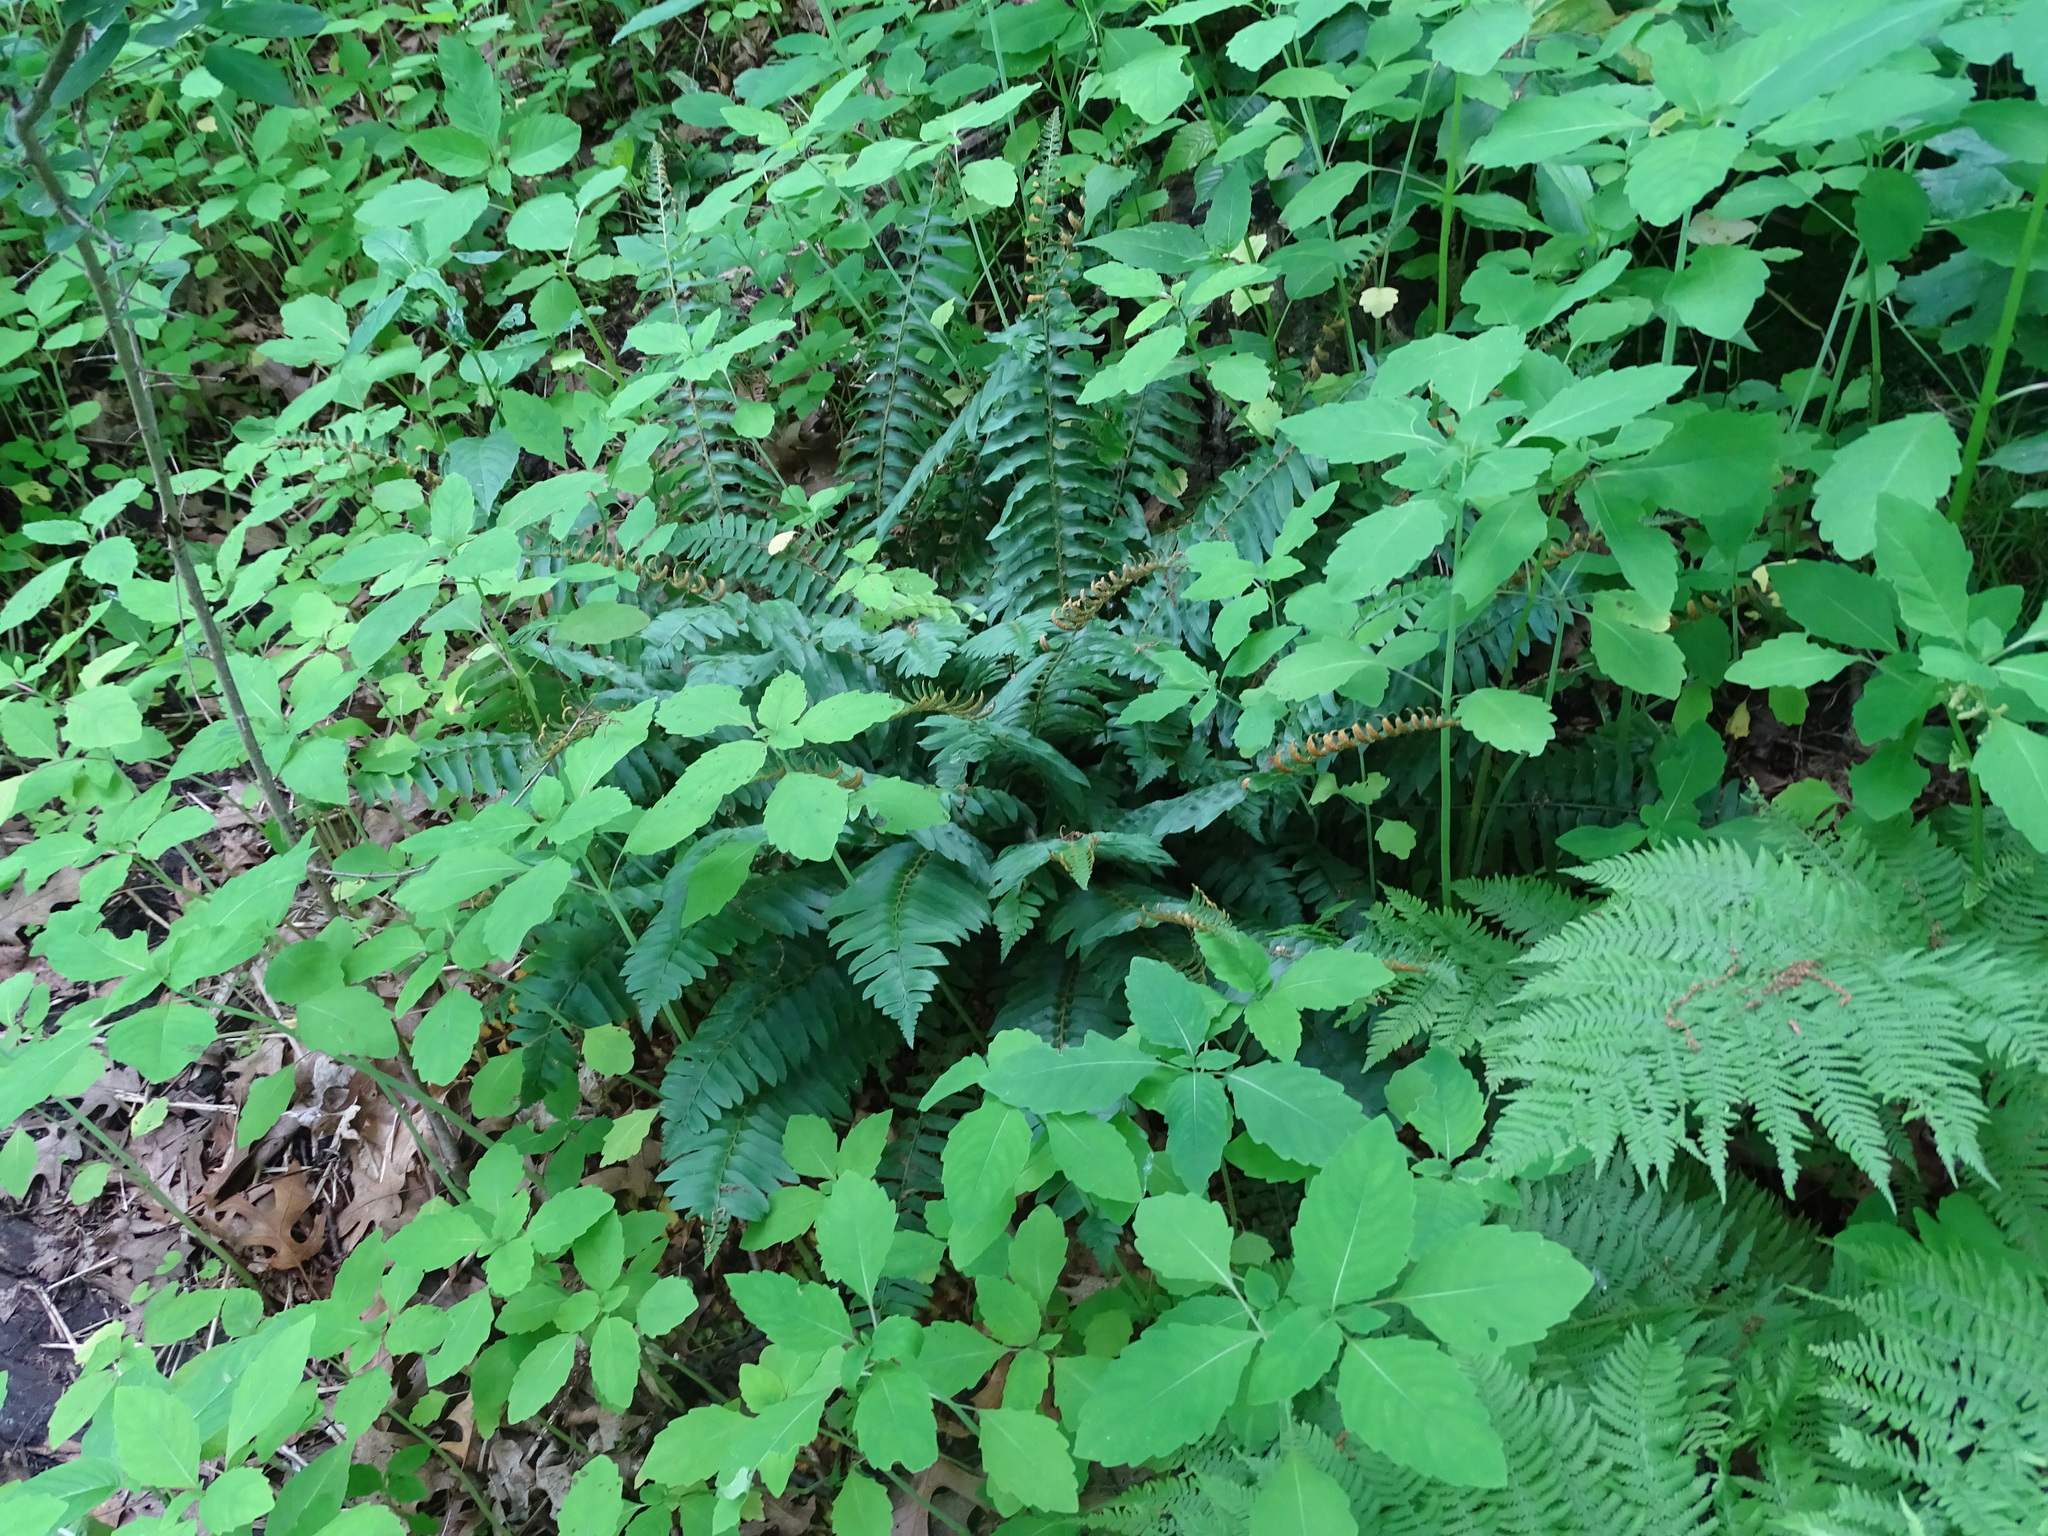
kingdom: Plantae
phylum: Tracheophyta
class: Polypodiopsida
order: Polypodiales
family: Dryopteridaceae
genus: Polystichum
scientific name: Polystichum acrostichoides
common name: Christmas fern
